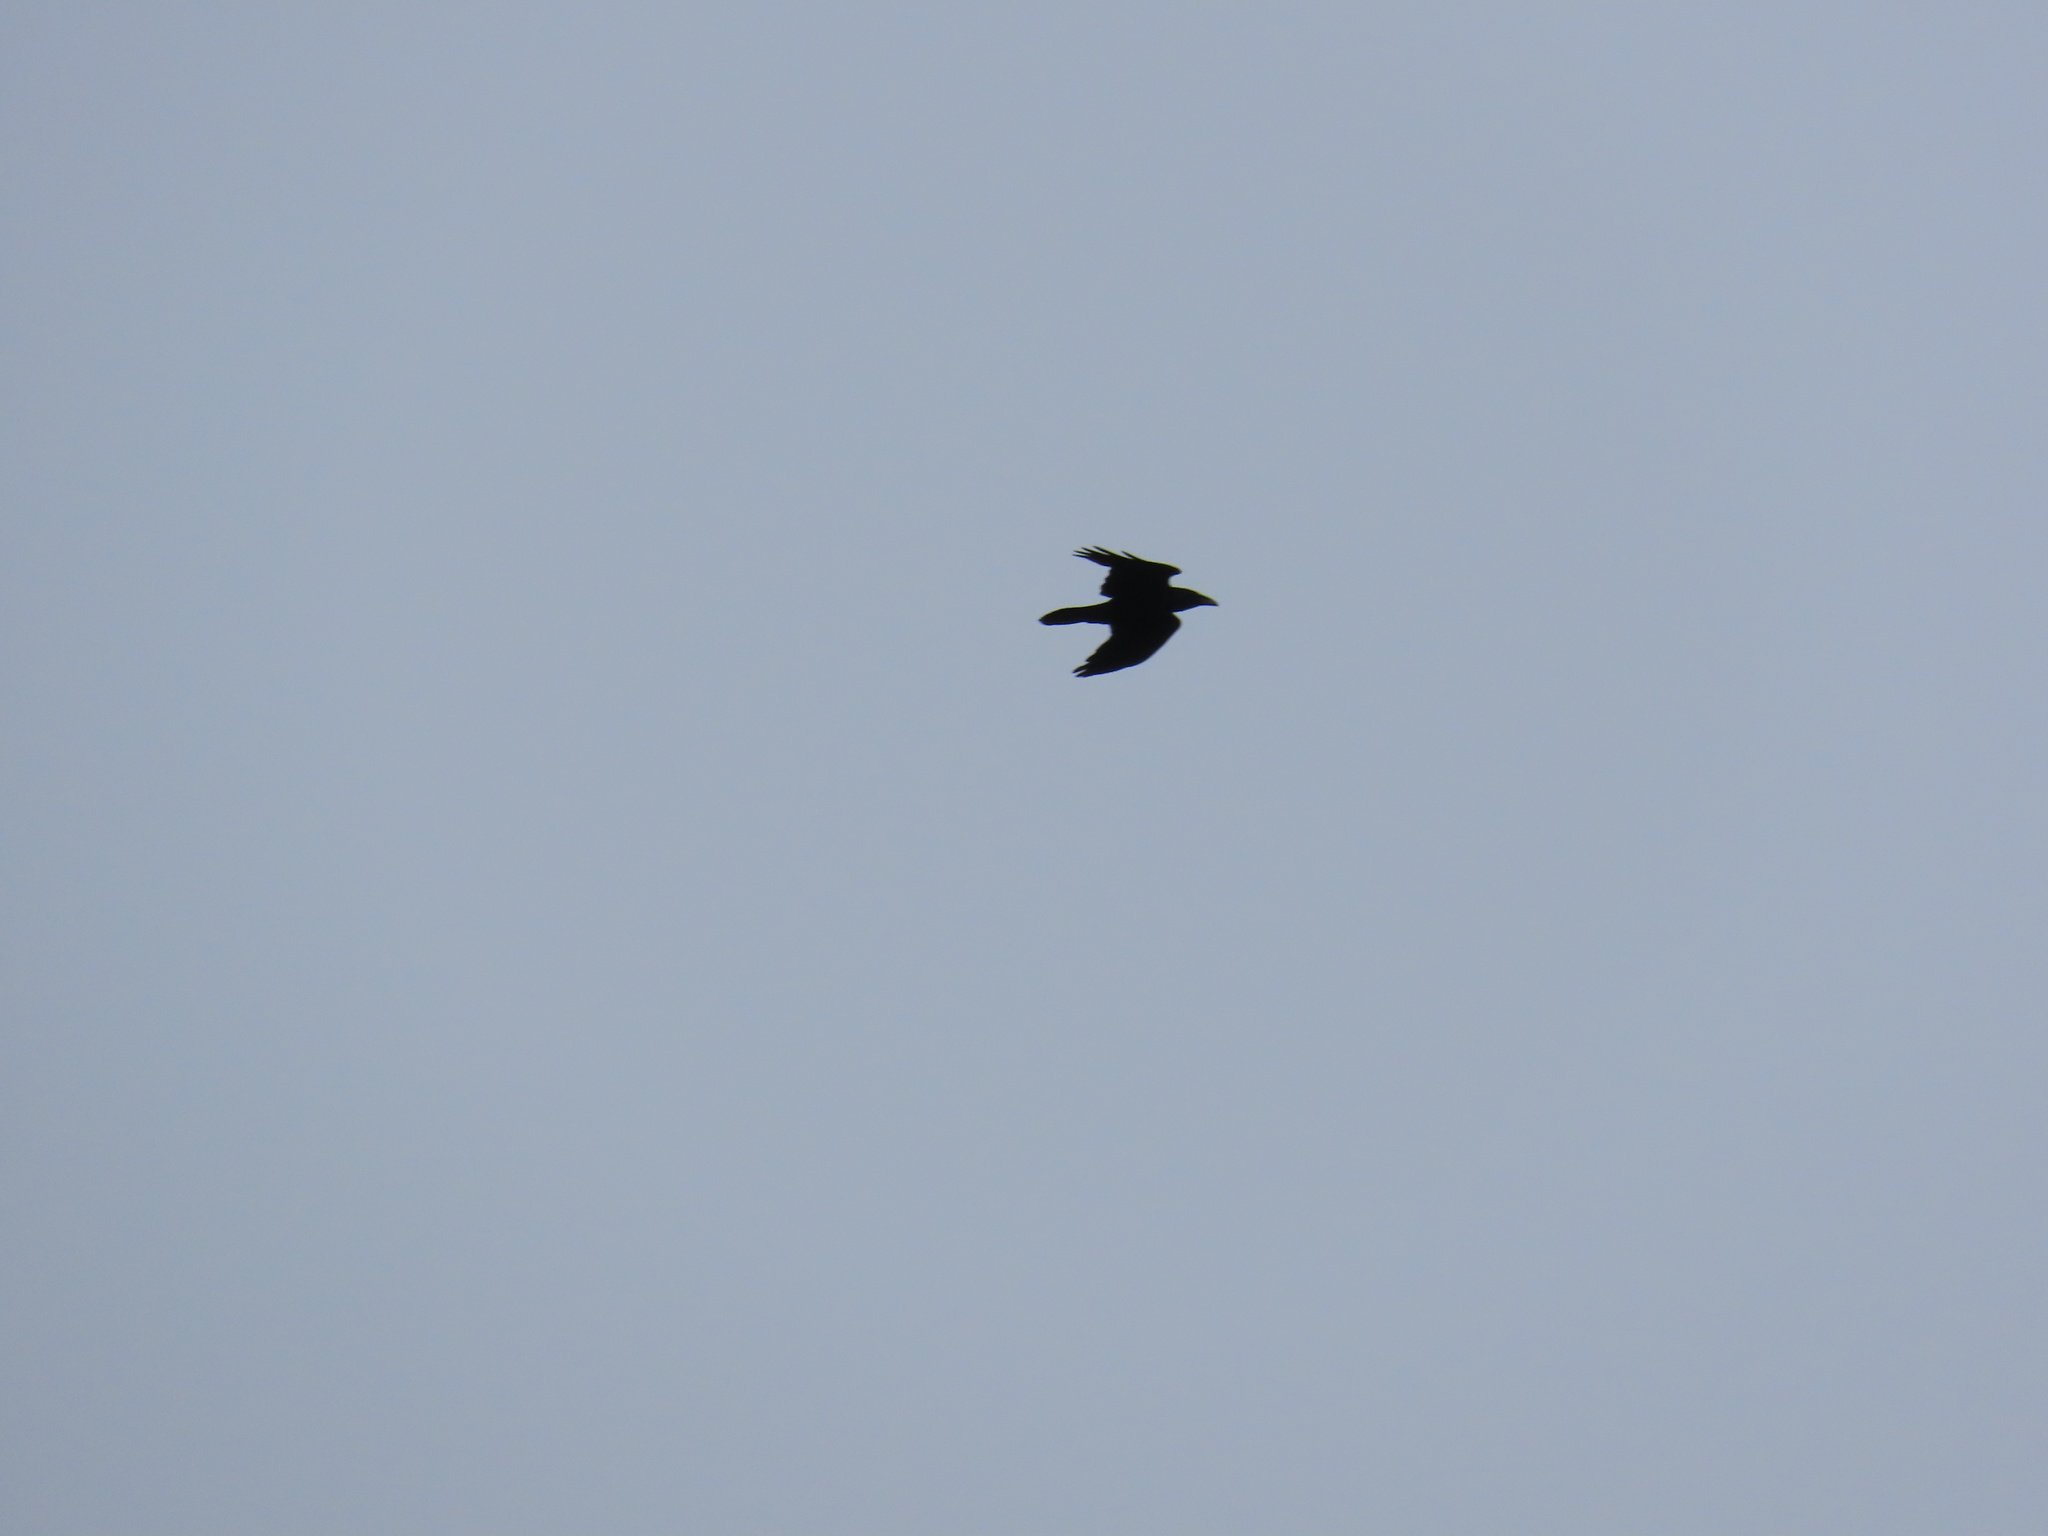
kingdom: Animalia
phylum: Chordata
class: Aves
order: Passeriformes
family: Corvidae
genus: Corvus
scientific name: Corvus corax
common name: Common raven
